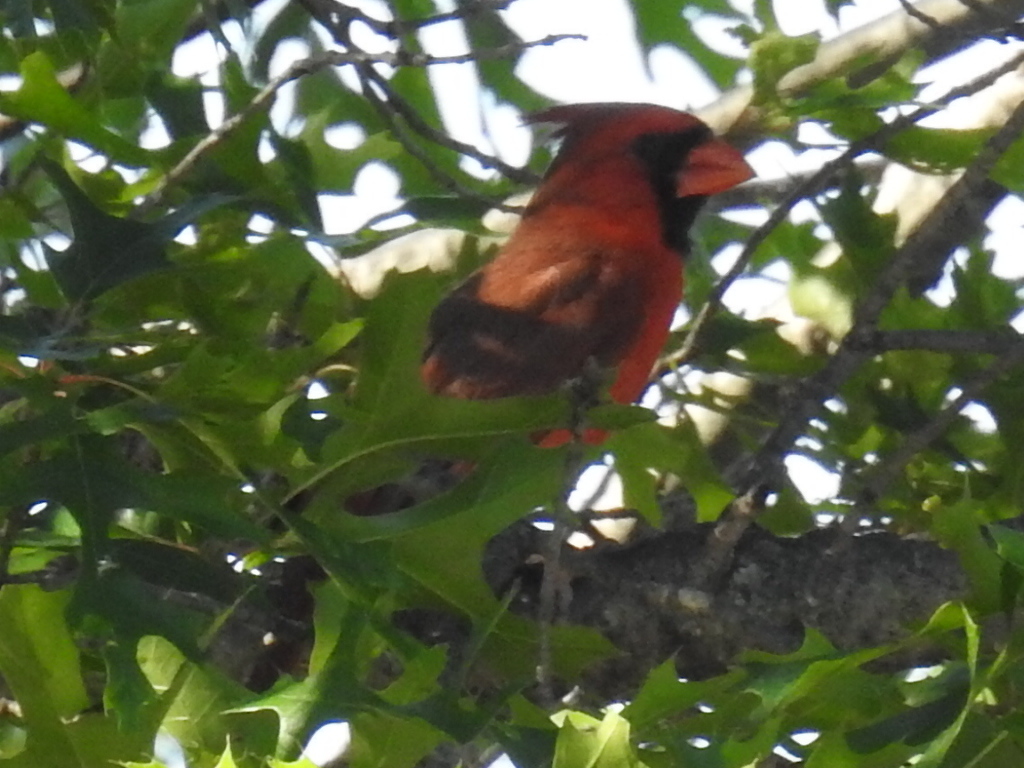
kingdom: Animalia
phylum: Chordata
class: Aves
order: Passeriformes
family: Cardinalidae
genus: Cardinalis
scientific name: Cardinalis cardinalis
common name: Northern cardinal
